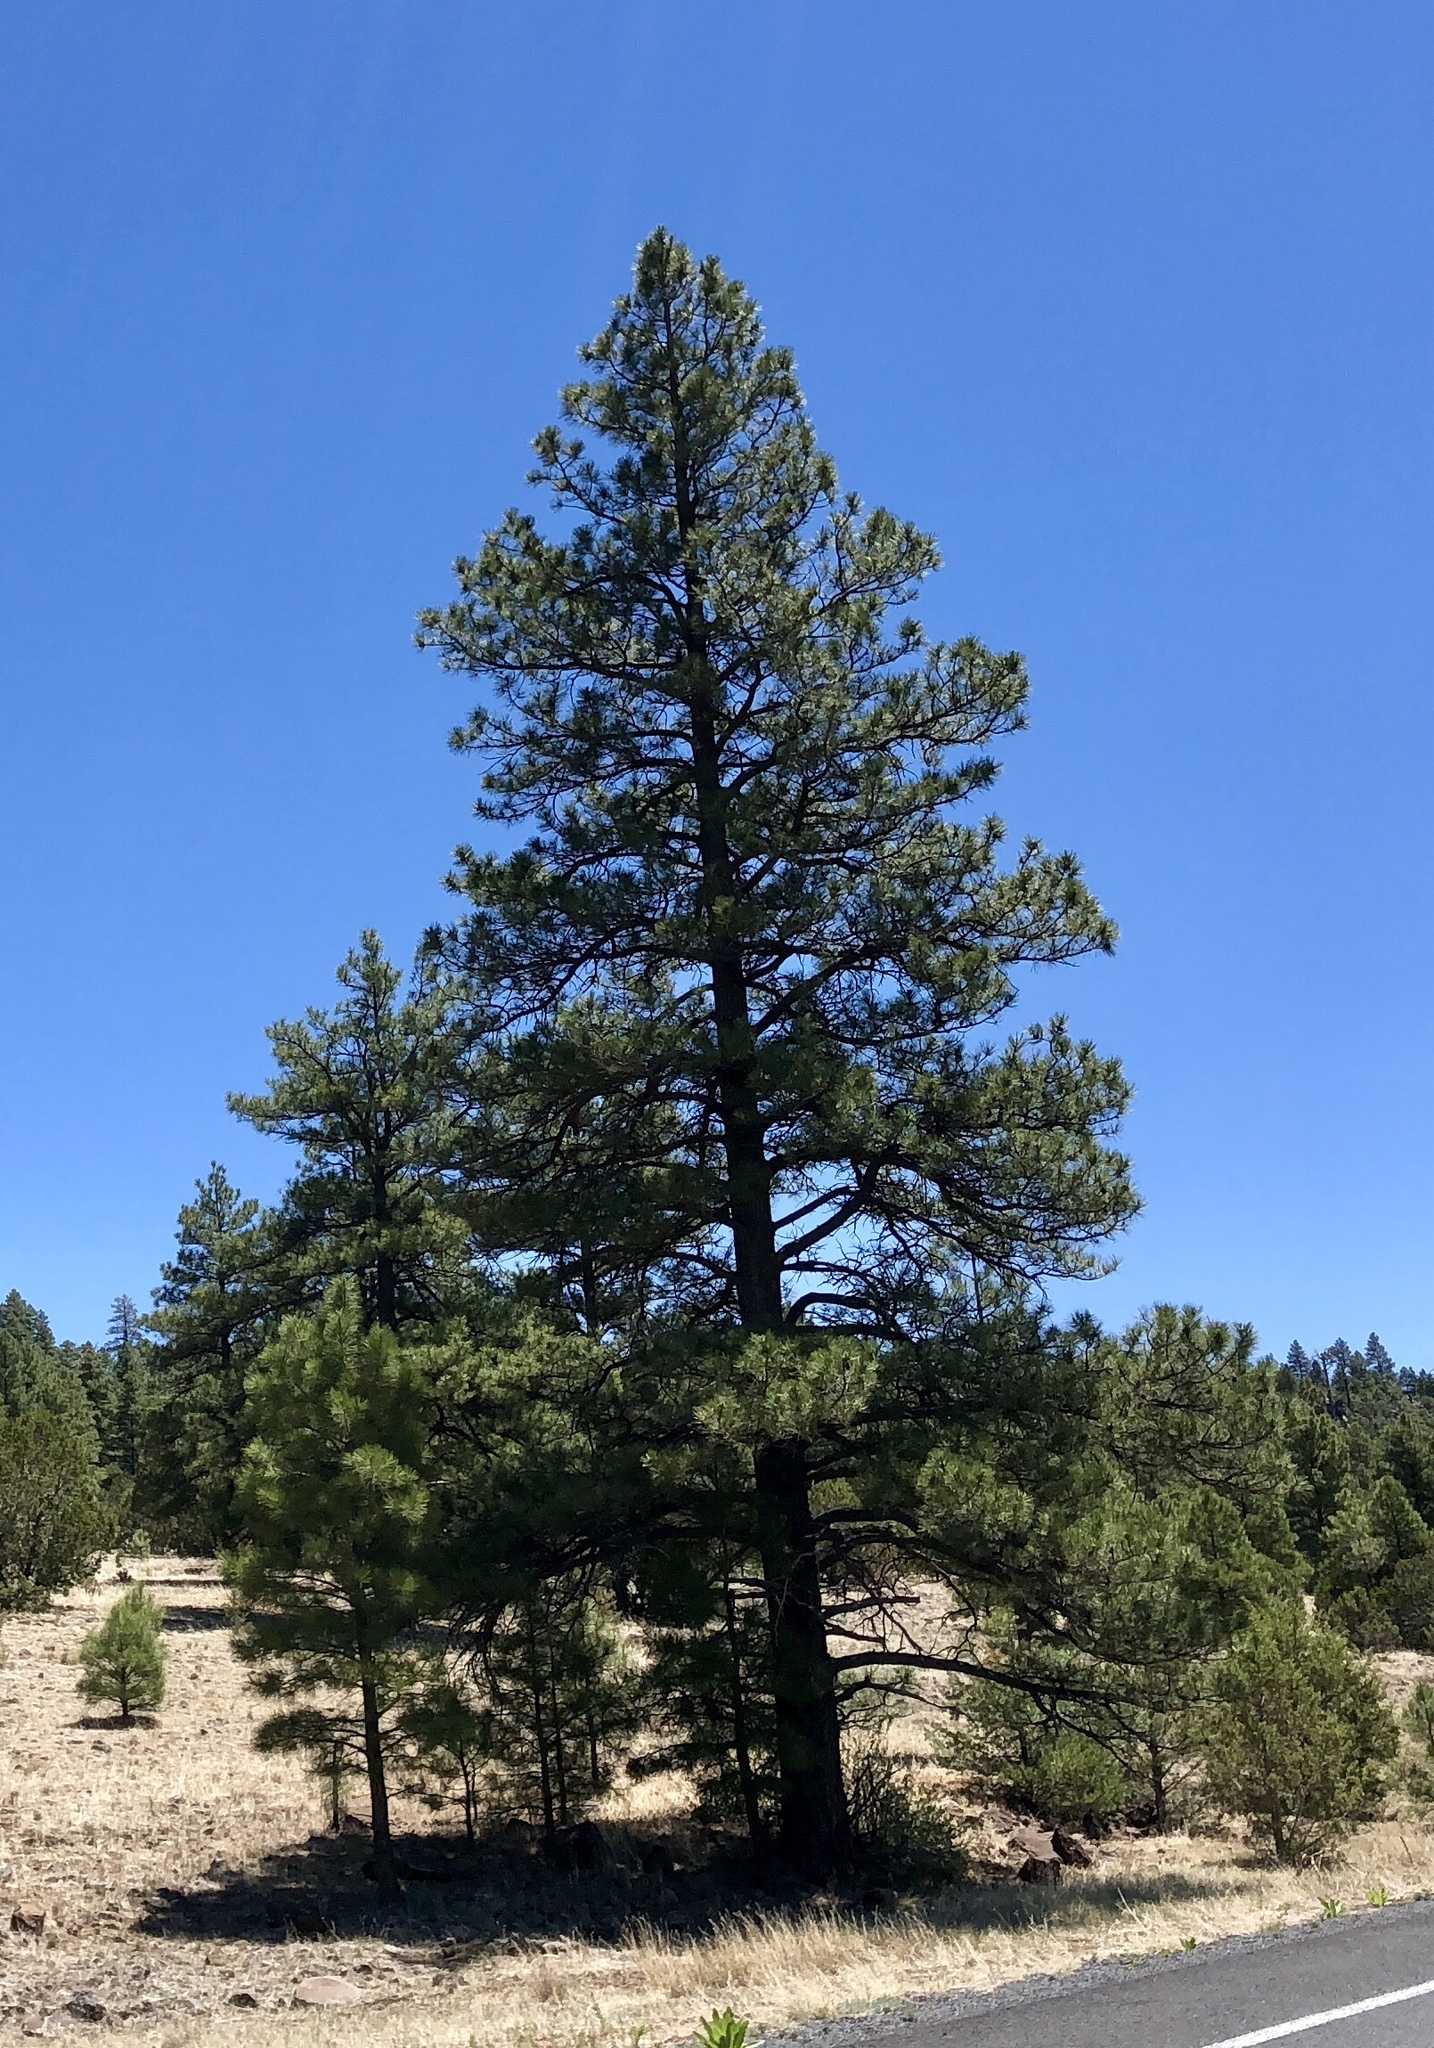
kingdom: Plantae
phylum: Tracheophyta
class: Pinopsida
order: Pinales
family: Pinaceae
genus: Pinus
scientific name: Pinus ponderosa
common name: Western yellow-pine
